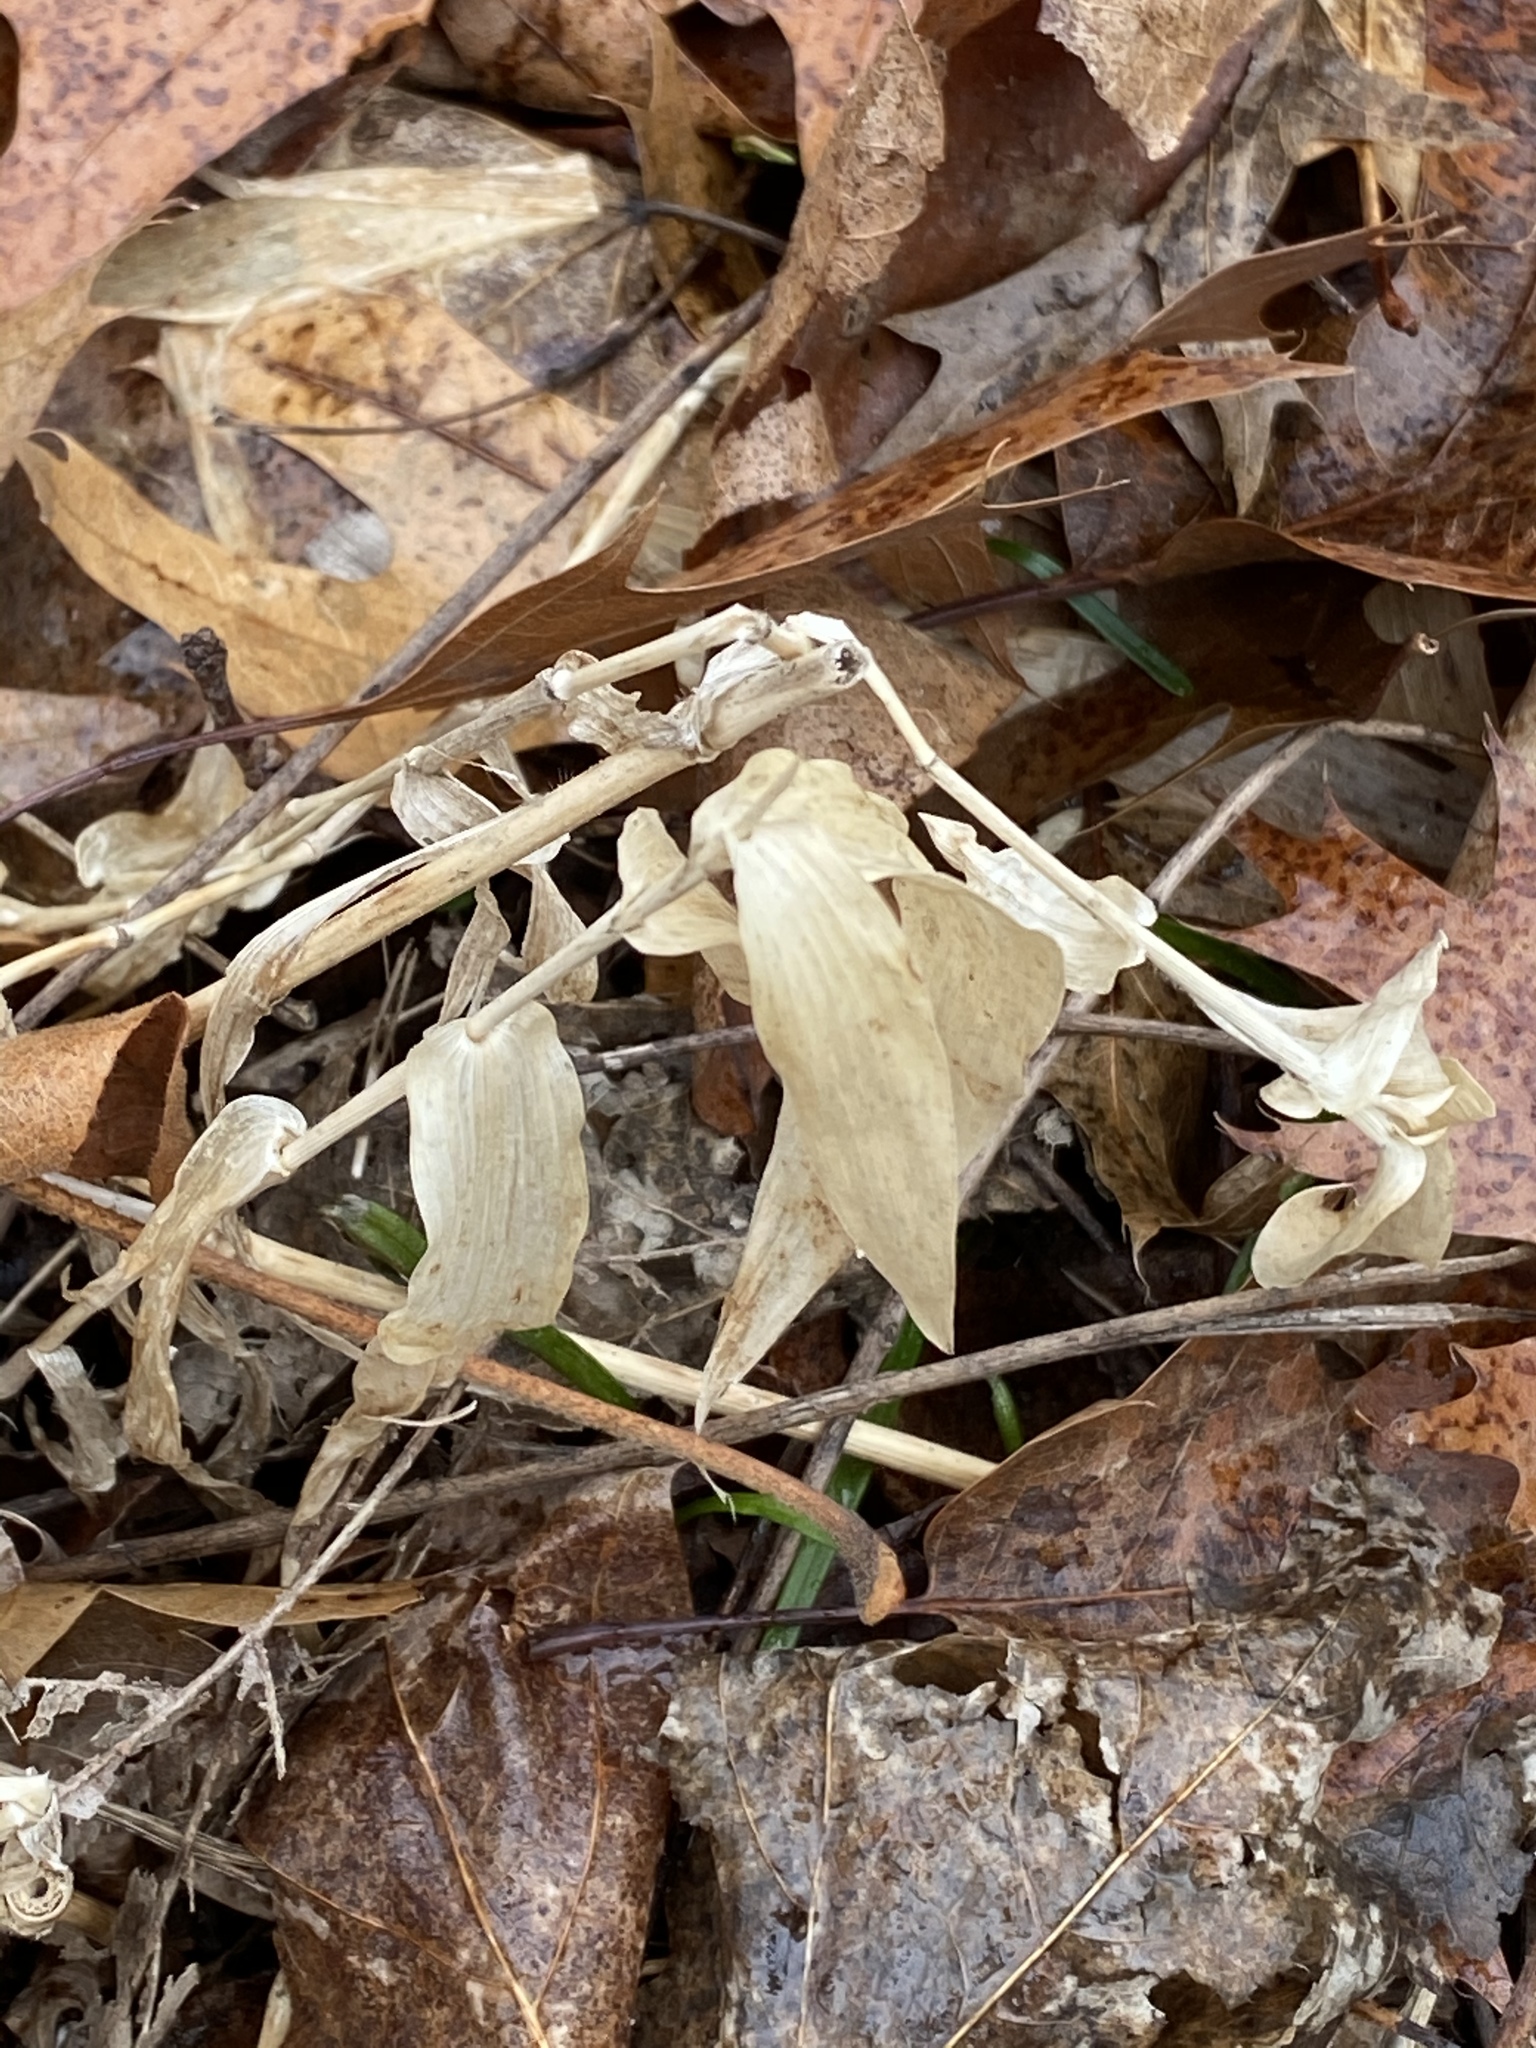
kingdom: Plantae
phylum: Tracheophyta
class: Liliopsida
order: Poales
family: Poaceae
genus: Dichanthelium
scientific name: Dichanthelium clandestinum
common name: Deer-tongue grass
